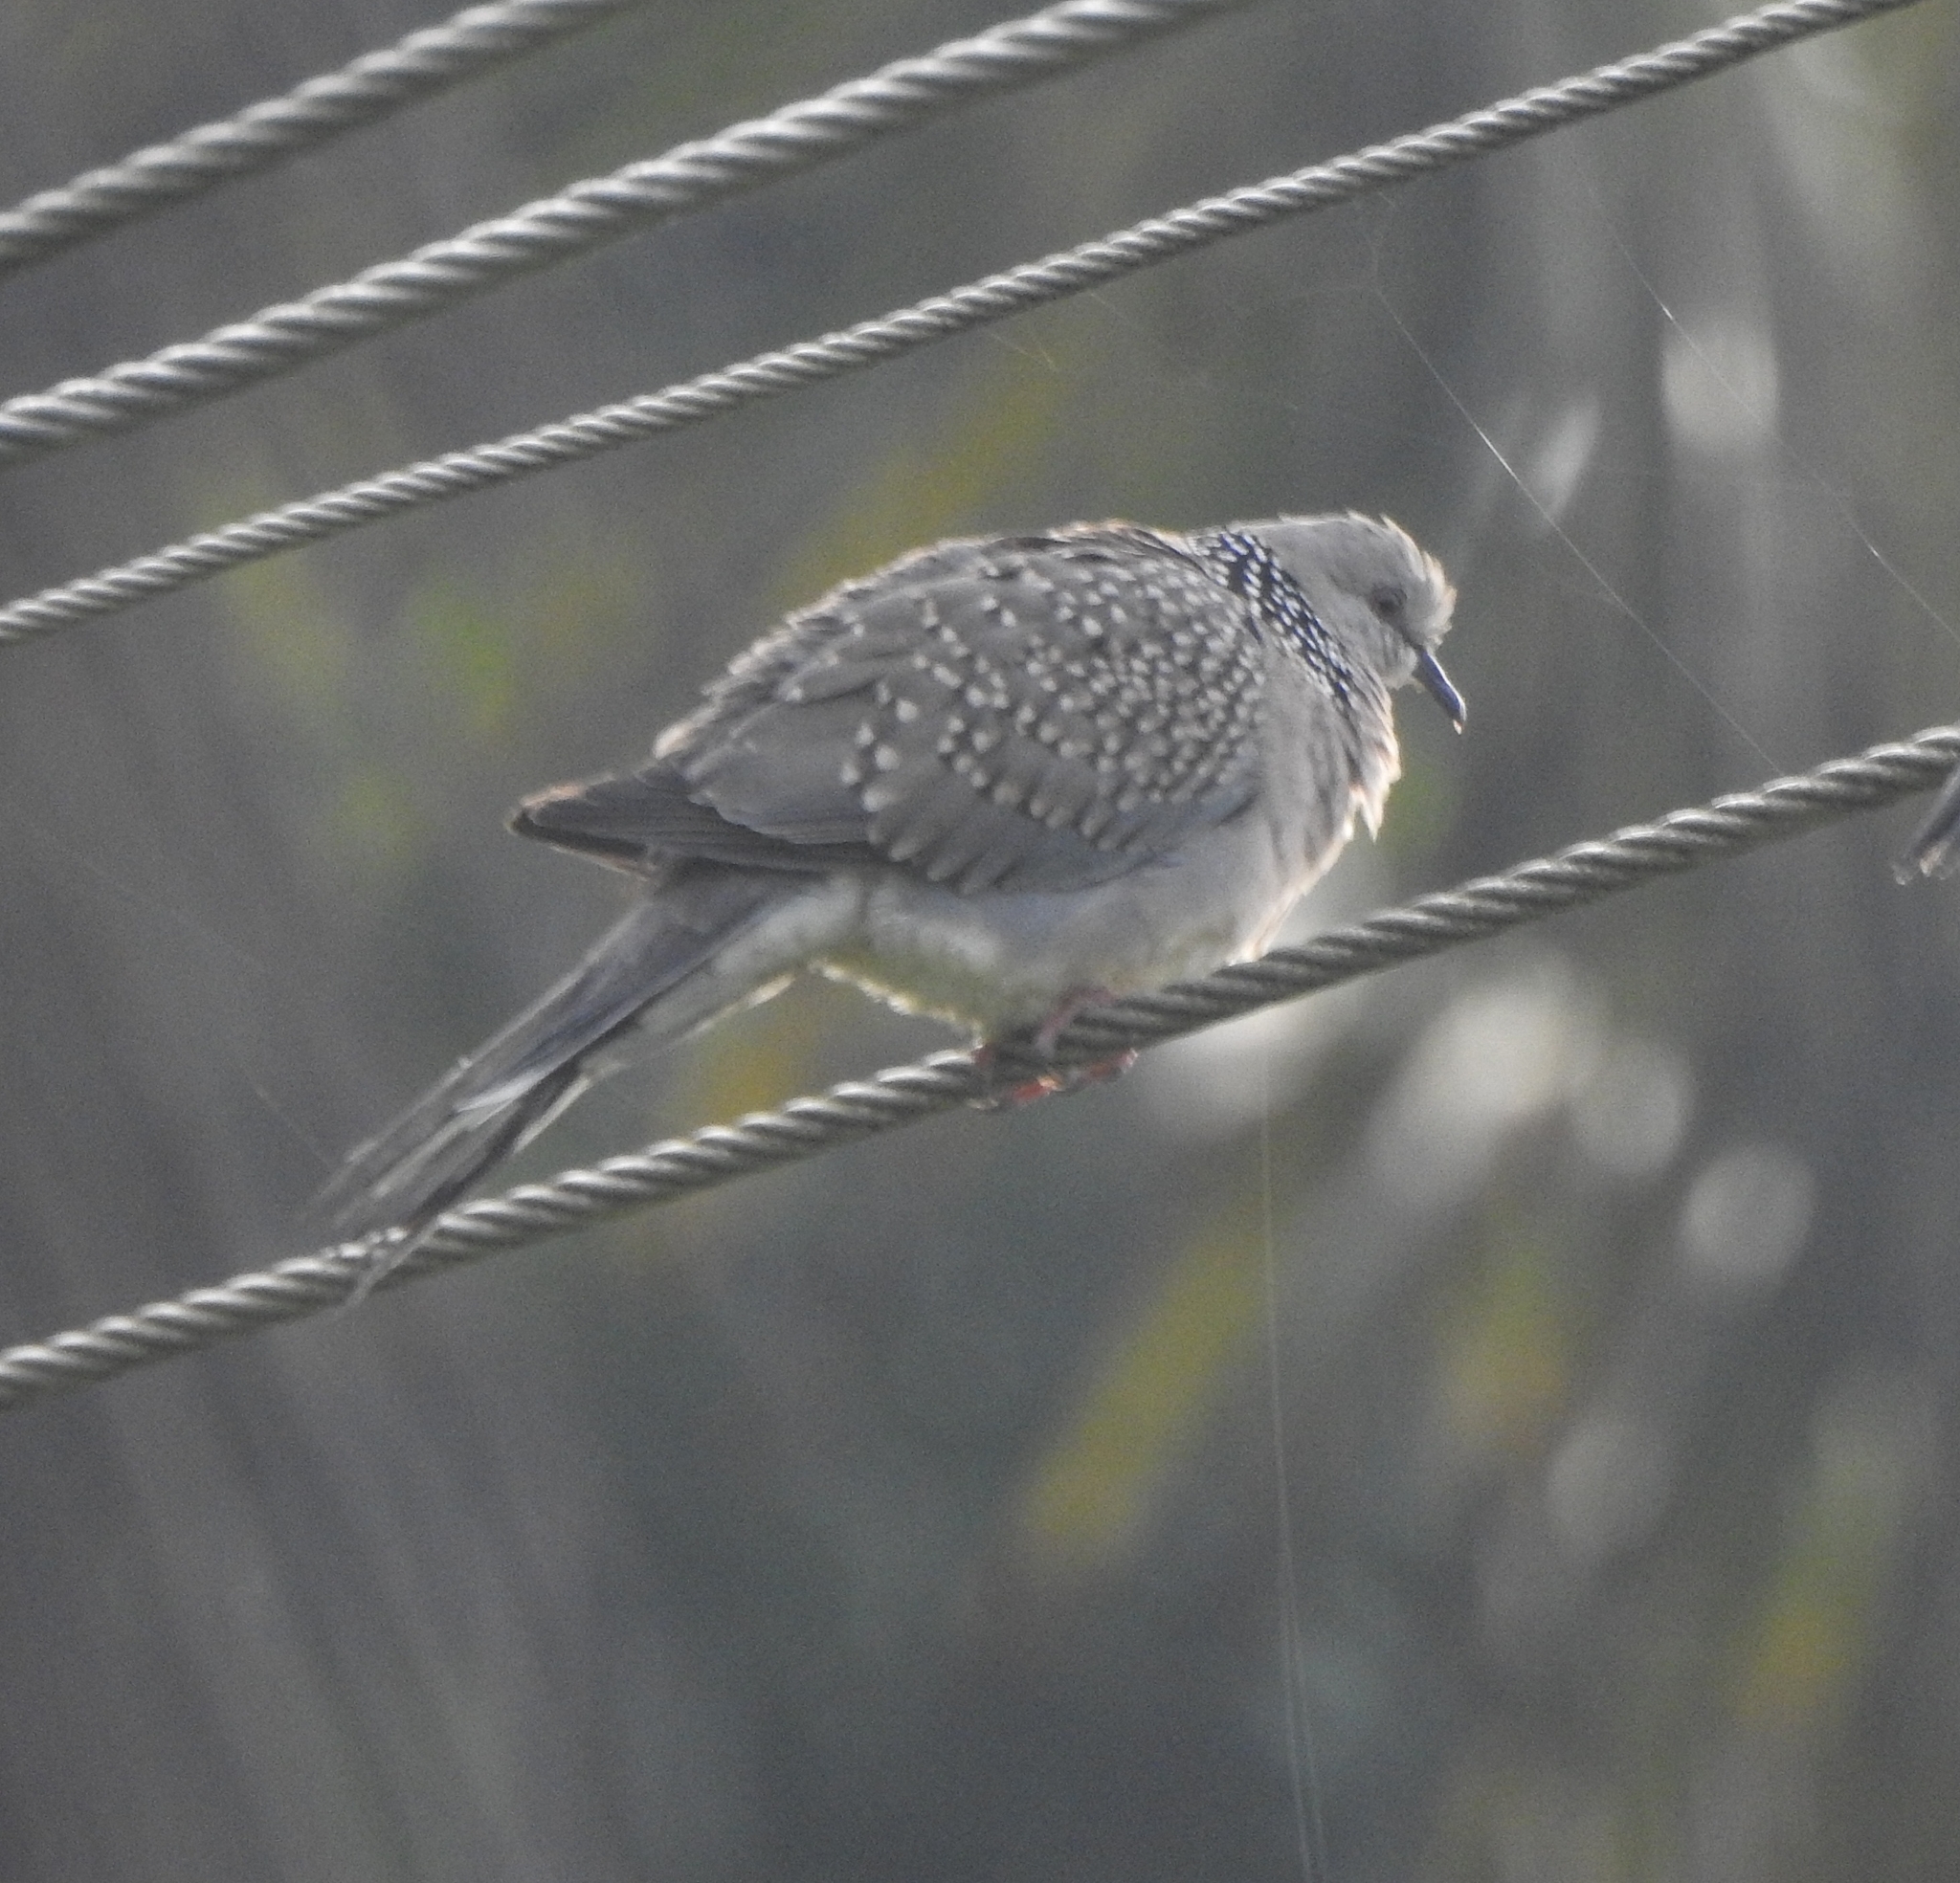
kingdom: Animalia
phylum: Chordata
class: Aves
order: Columbiformes
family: Columbidae
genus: Spilopelia
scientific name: Spilopelia chinensis
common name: Spotted dove
